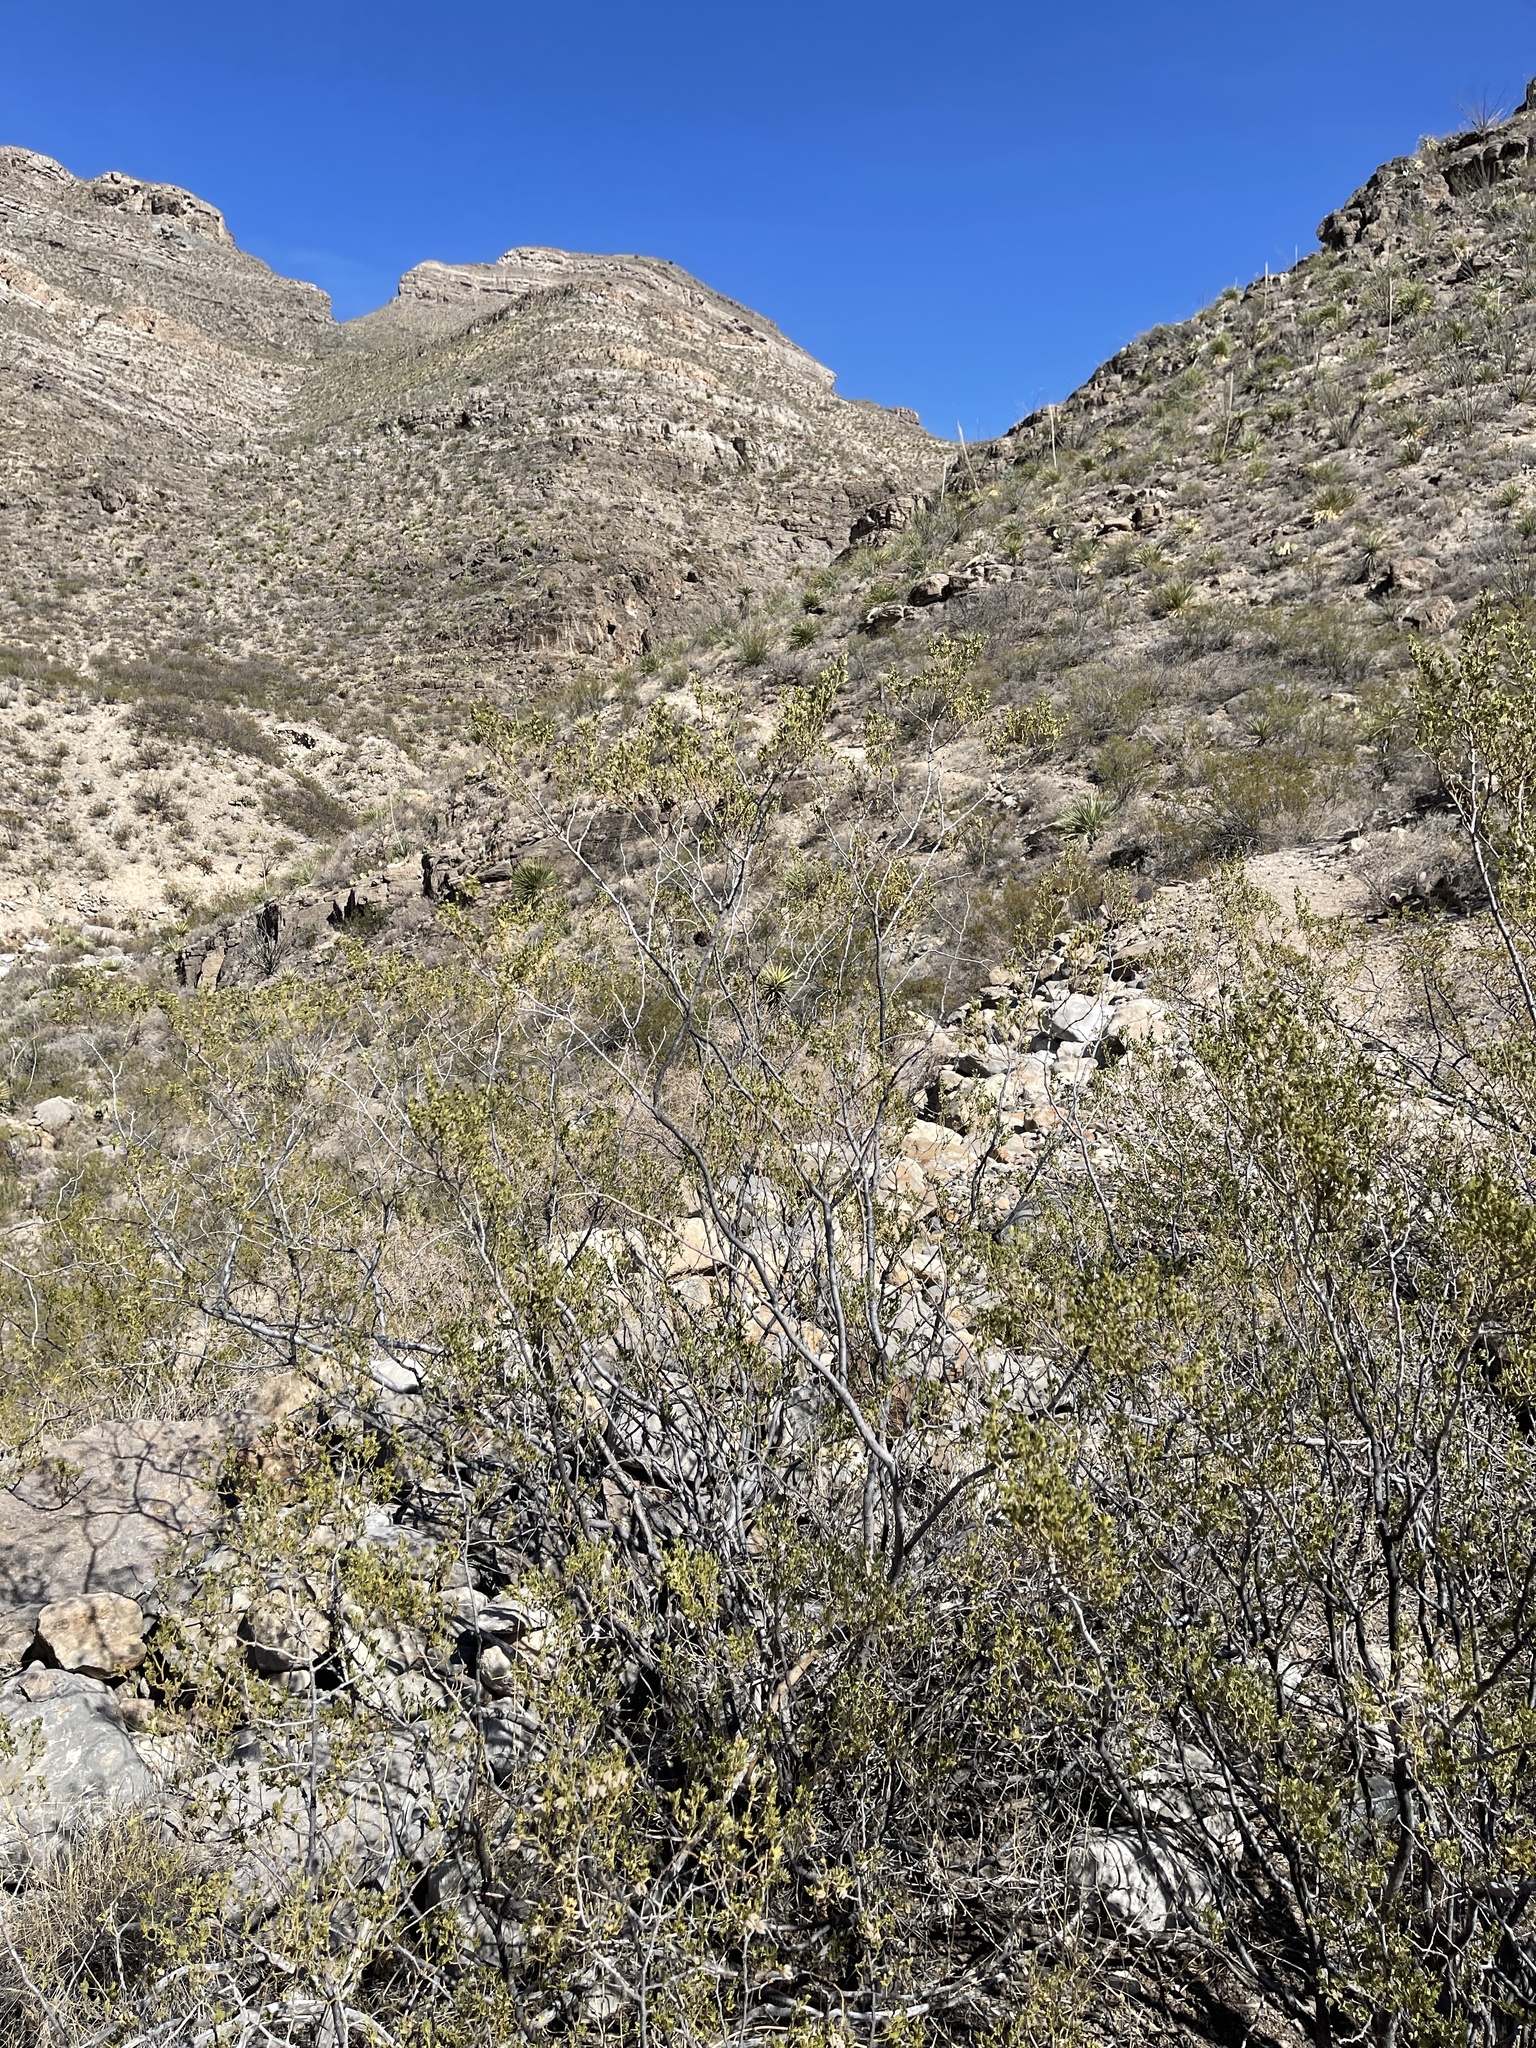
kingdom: Plantae
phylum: Tracheophyta
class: Magnoliopsida
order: Zygophyllales
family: Zygophyllaceae
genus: Larrea
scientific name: Larrea tridentata
